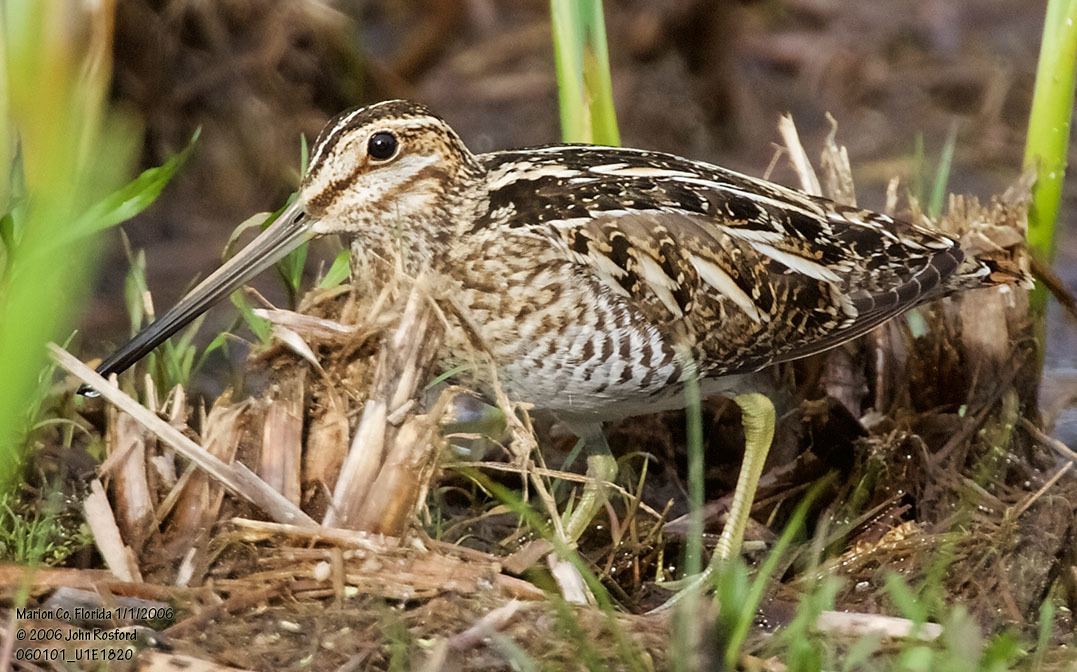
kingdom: Animalia
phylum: Chordata
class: Aves
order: Charadriiformes
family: Scolopacidae
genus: Gallinago
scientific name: Gallinago delicata
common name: Wilson's snipe
